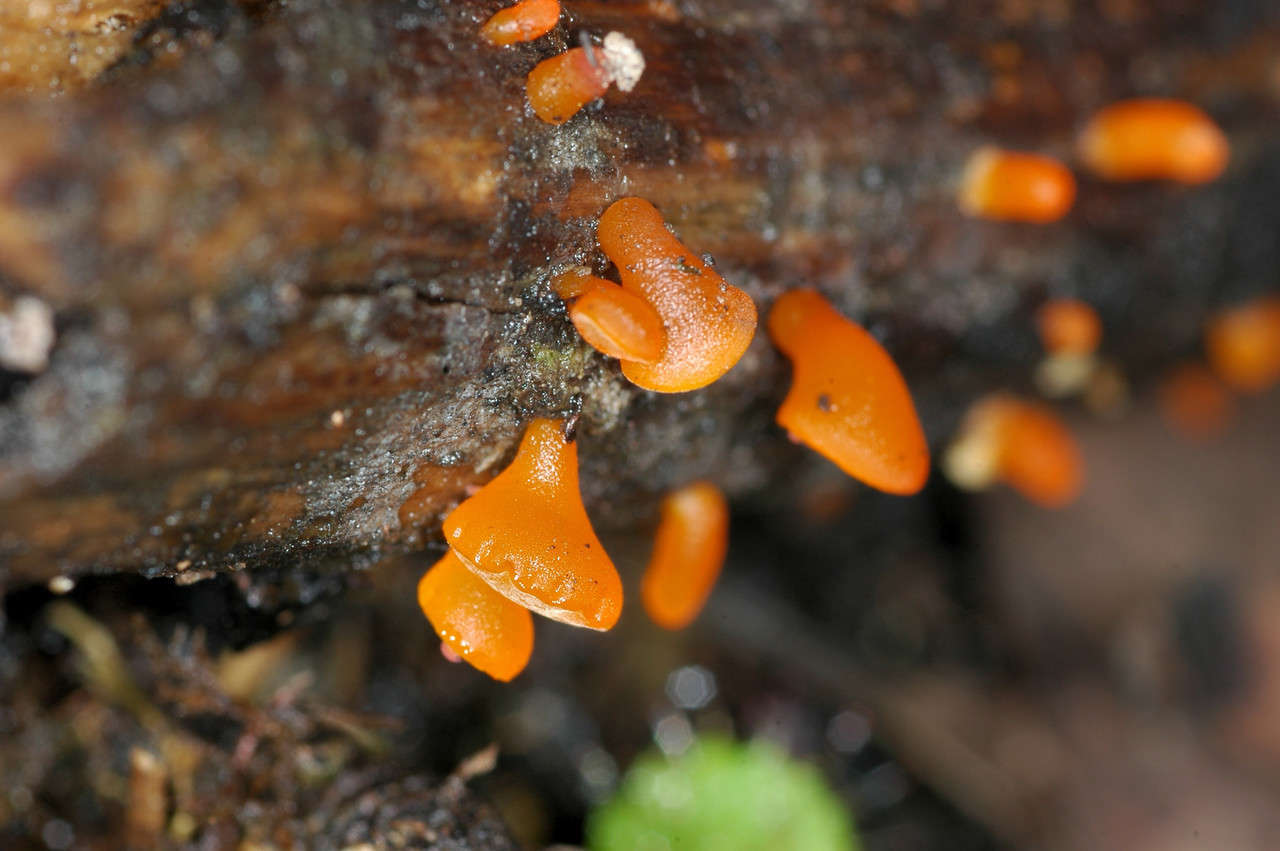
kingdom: Fungi
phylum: Basidiomycota
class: Dacrymycetes
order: Dacrymycetales
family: Dacrymycetaceae
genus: Heterotextus
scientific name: Heterotextus peziziformis
